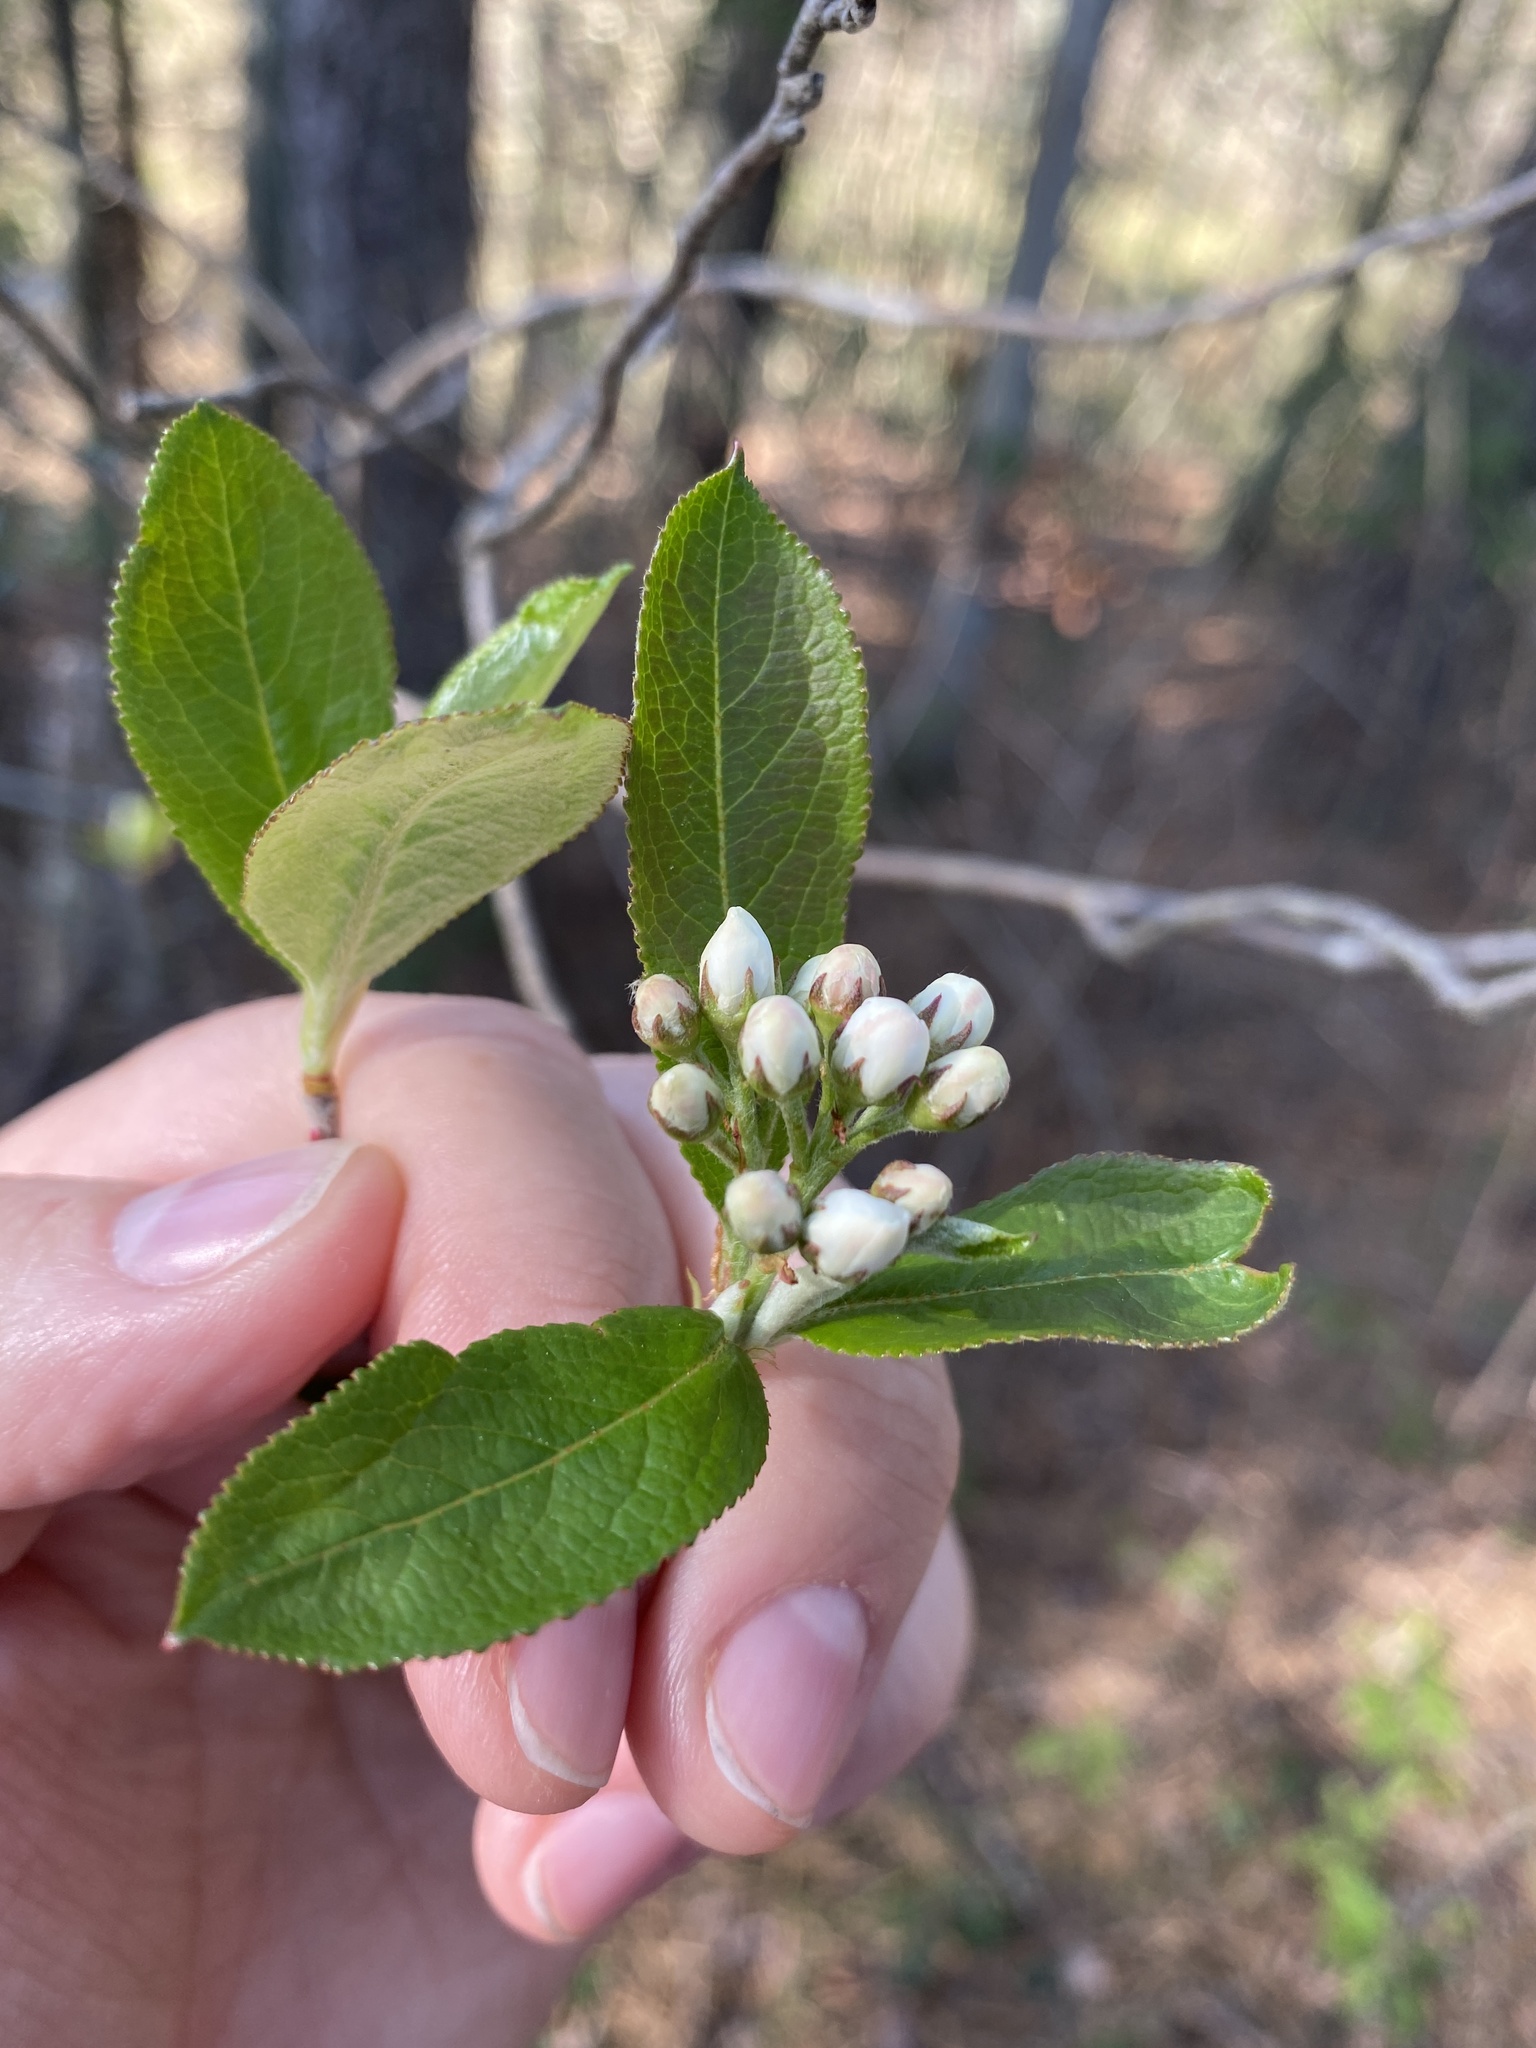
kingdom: Plantae
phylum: Tracheophyta
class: Magnoliopsida
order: Rosales
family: Rosaceae
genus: Aronia
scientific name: Aronia arbutifolia
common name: Red chokeberry
